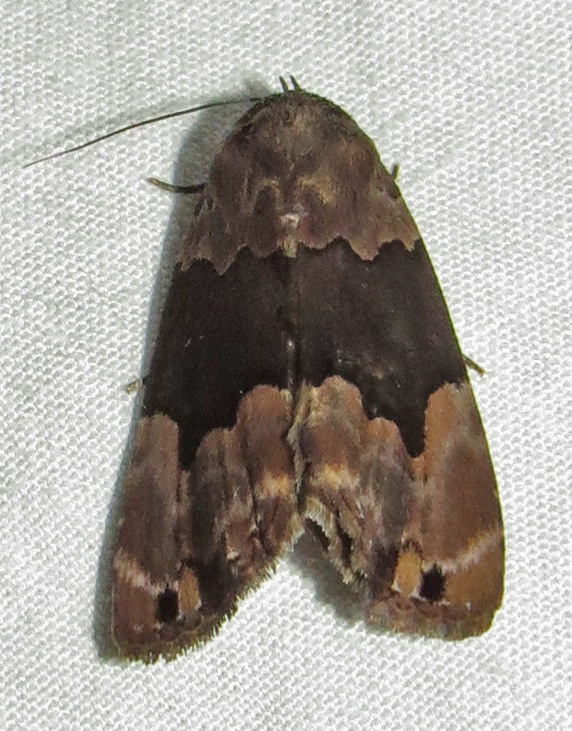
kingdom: Animalia
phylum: Arthropoda
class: Insecta
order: Lepidoptera
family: Erebidae
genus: Dinumma
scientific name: Dinumma deponens
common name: Purplish moth
